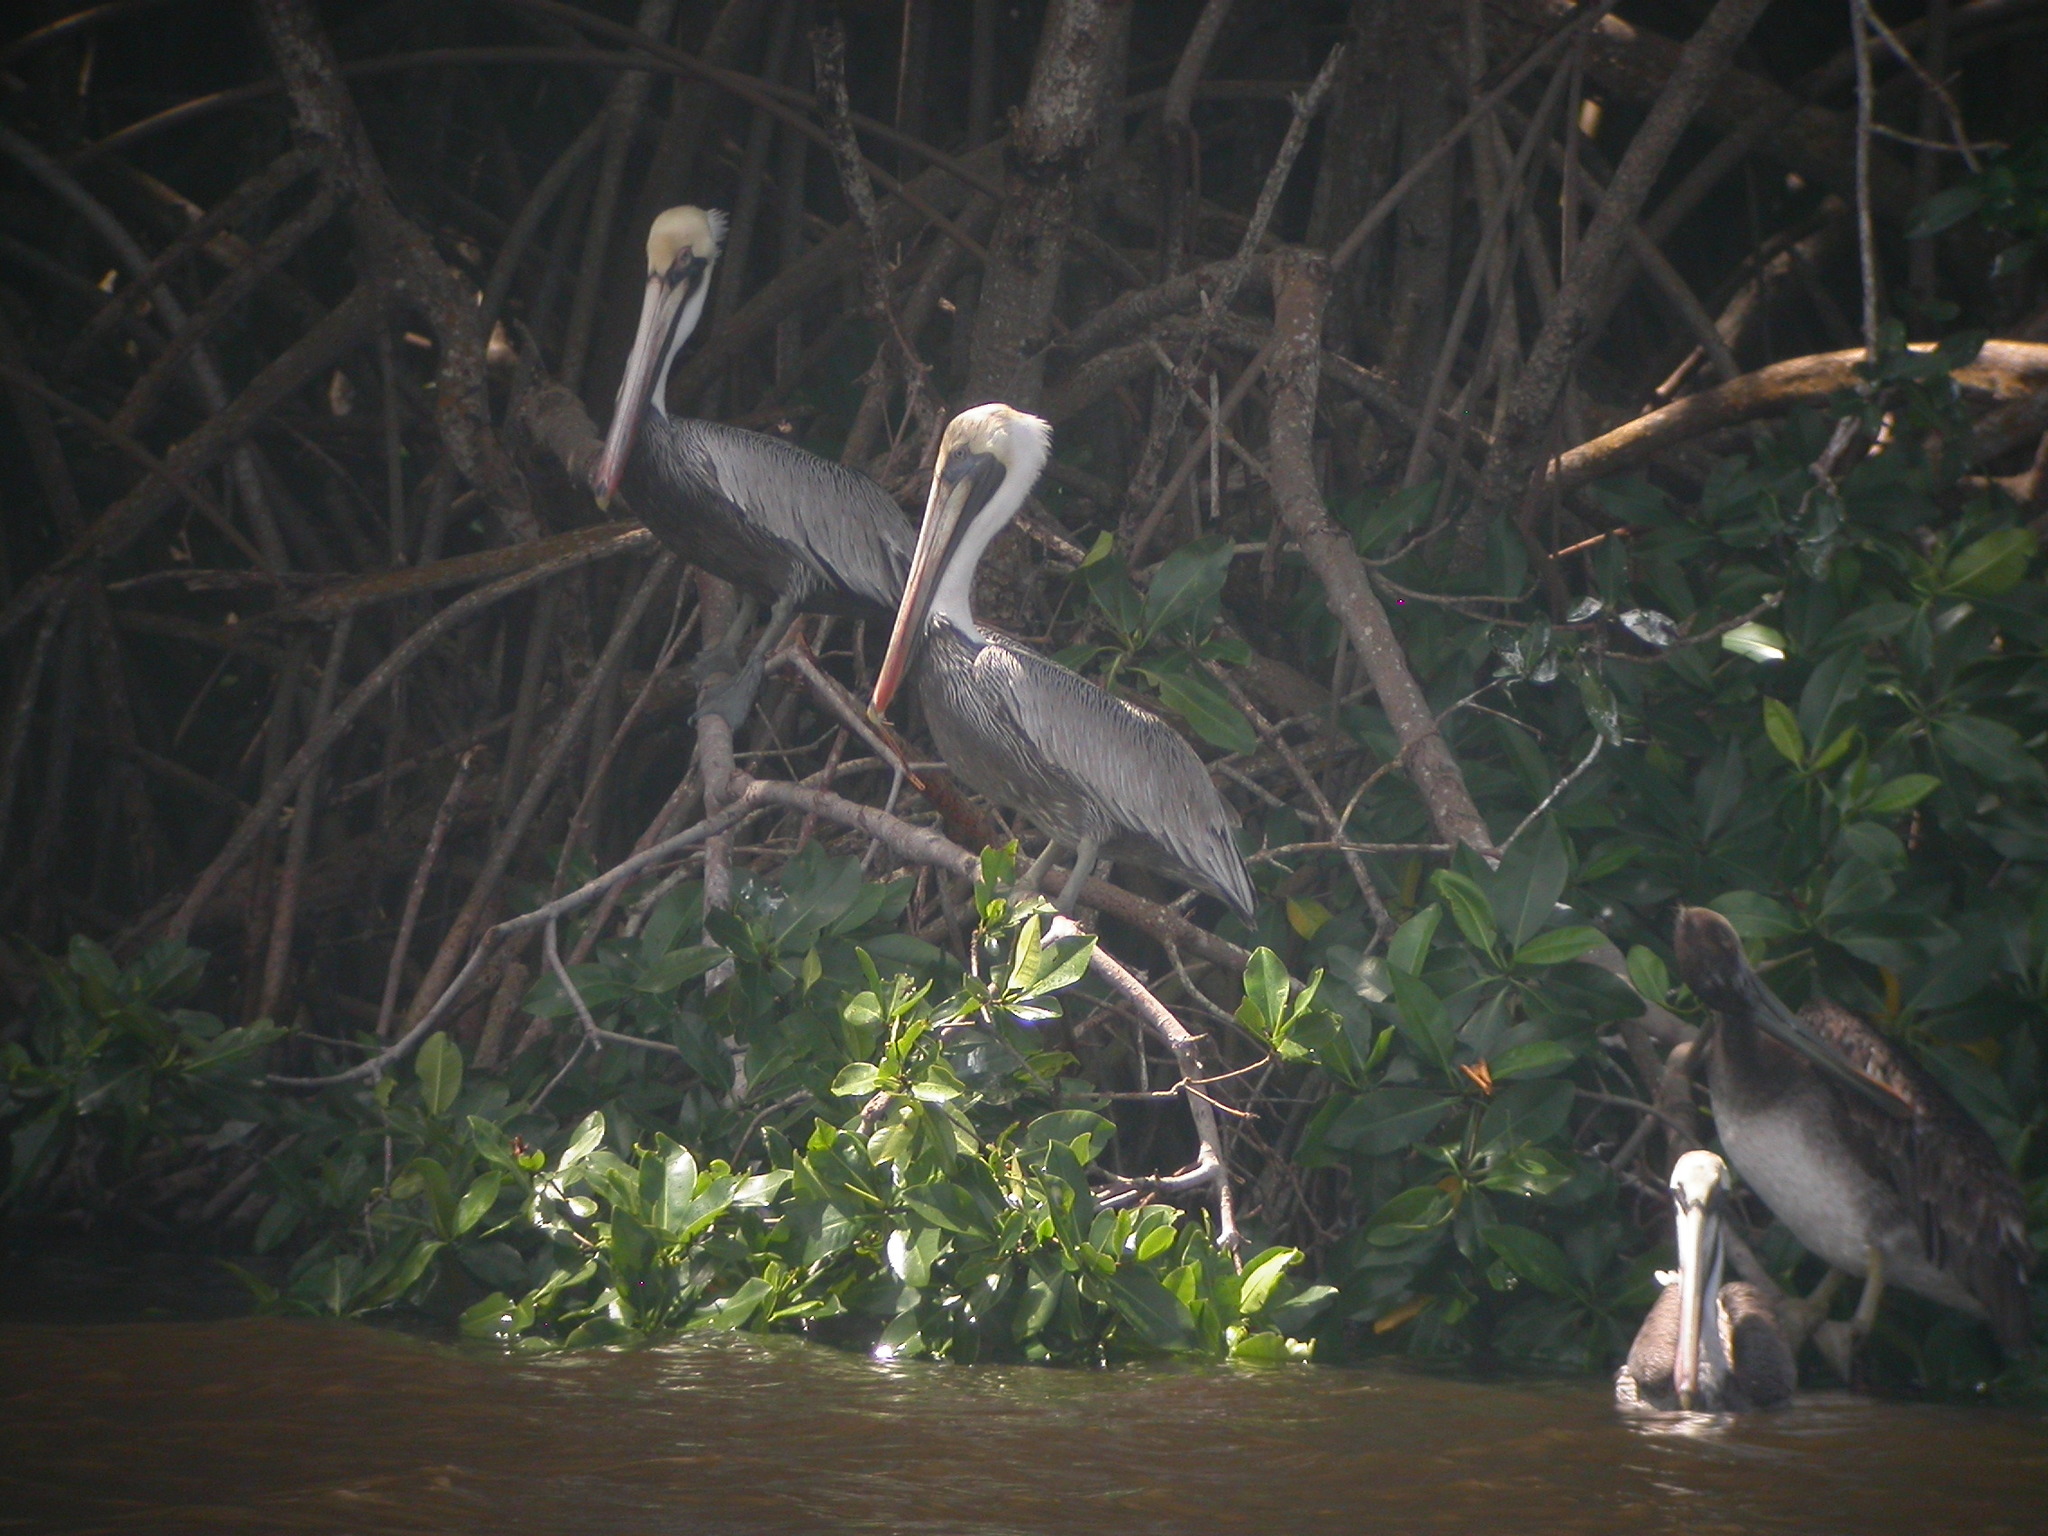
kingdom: Animalia
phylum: Chordata
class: Aves
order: Pelecaniformes
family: Pelecanidae
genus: Pelecanus
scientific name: Pelecanus occidentalis
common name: Brown pelican
